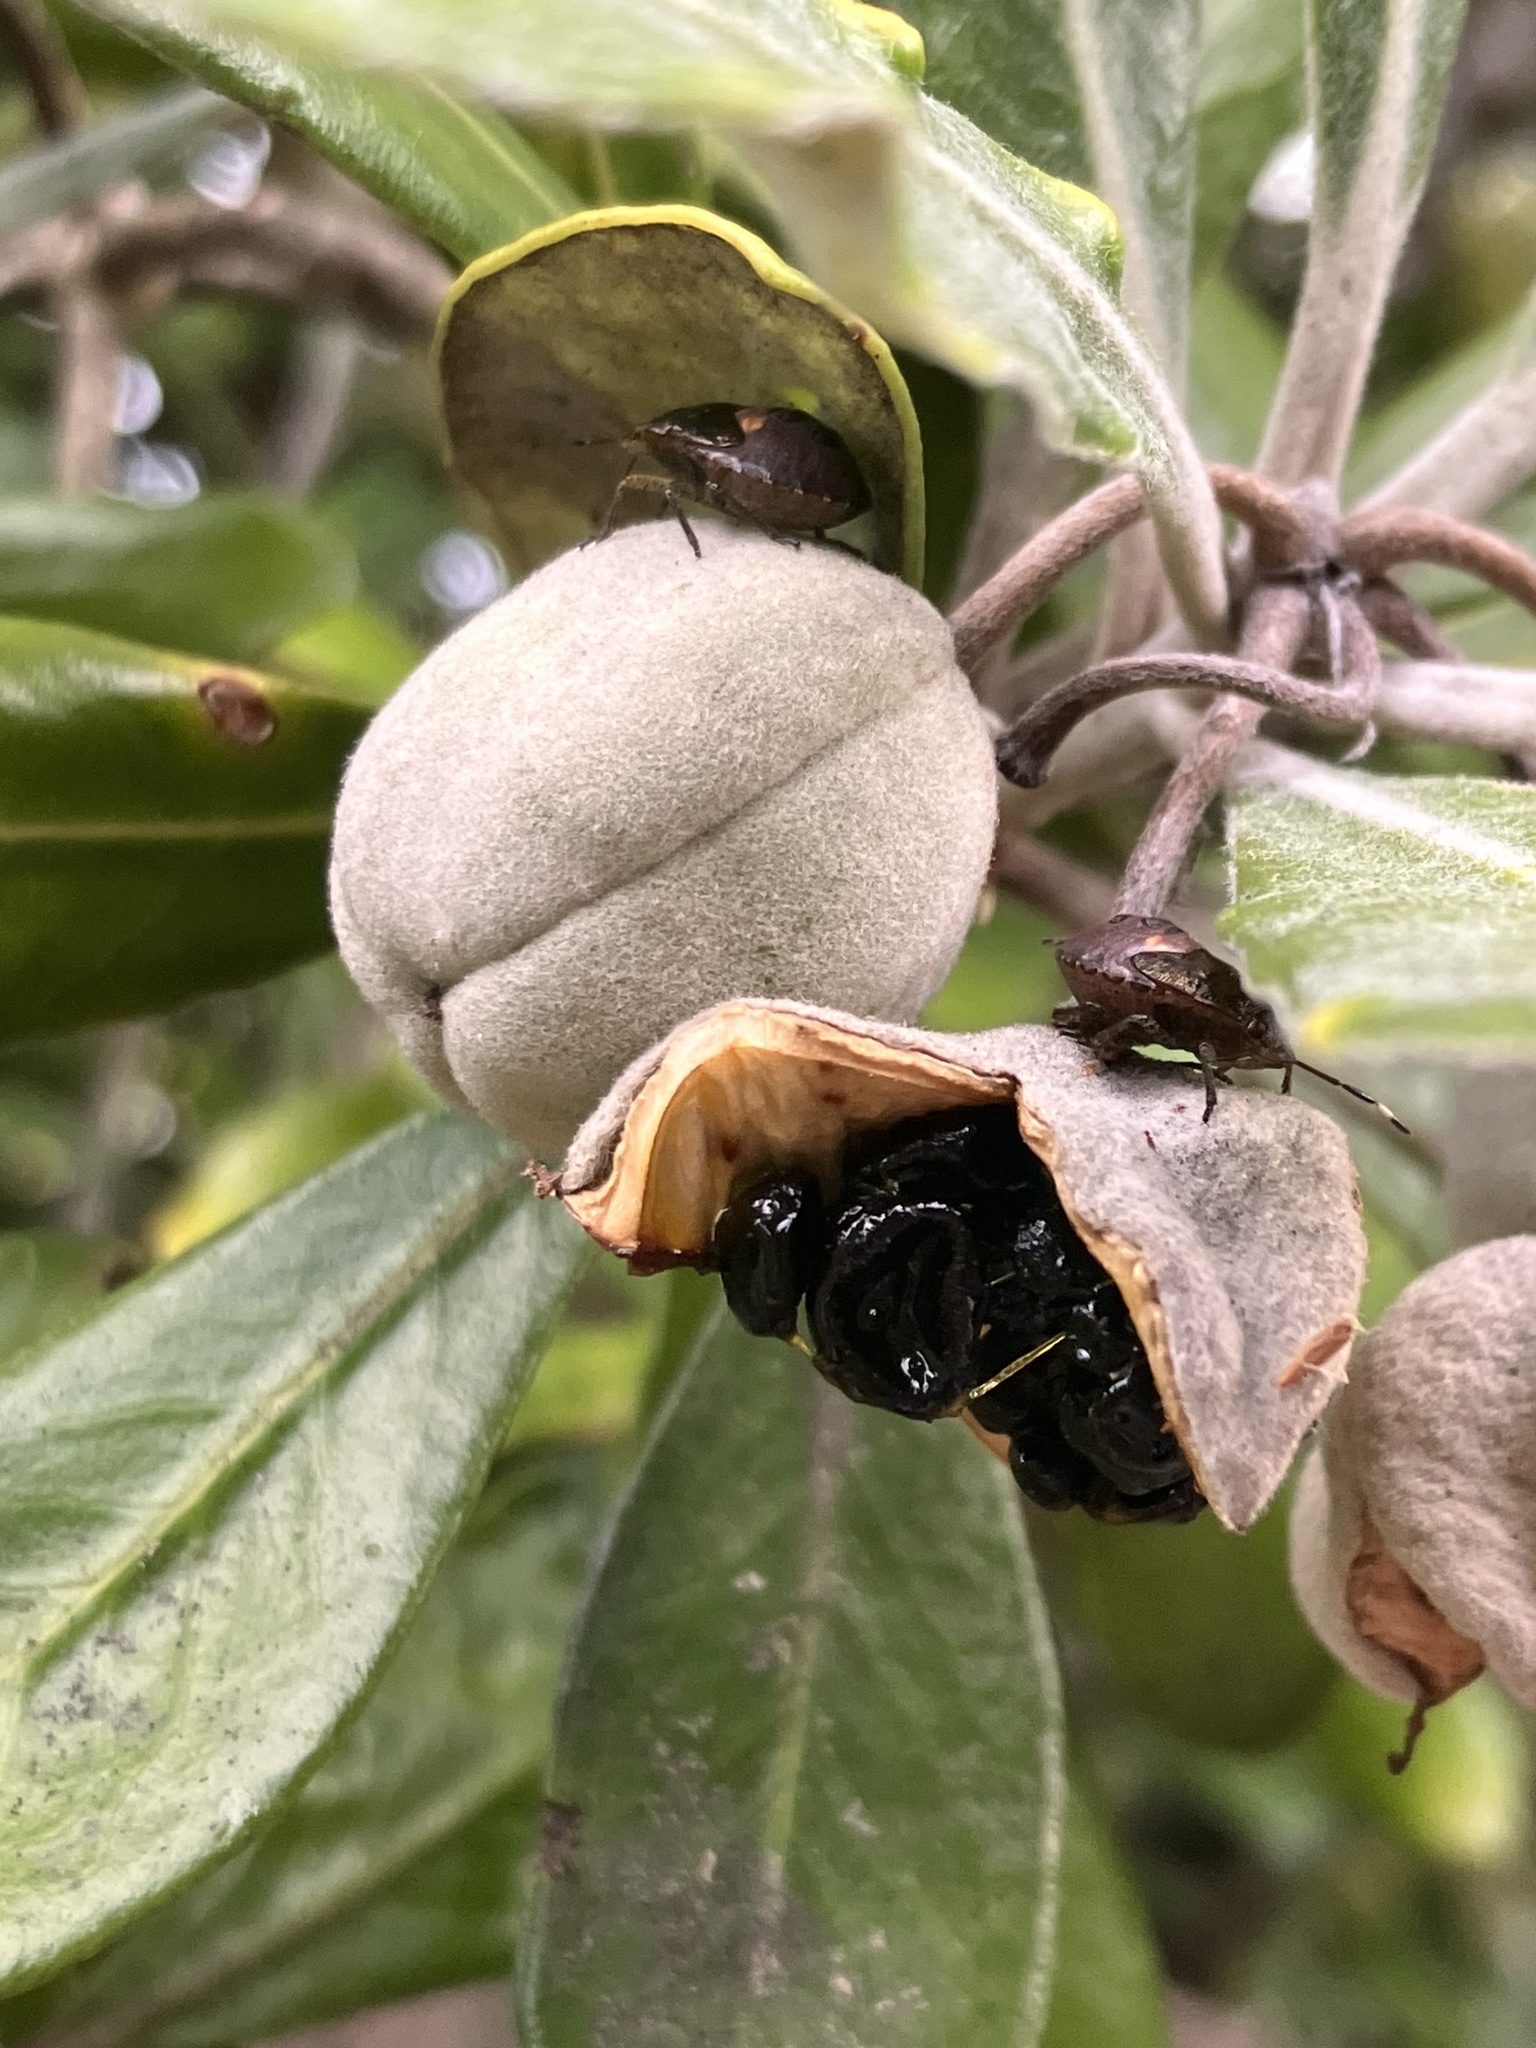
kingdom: Animalia
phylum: Arthropoda
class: Insecta
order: Hemiptera
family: Pentatomidae
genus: Monteithiella
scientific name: Monteithiella
